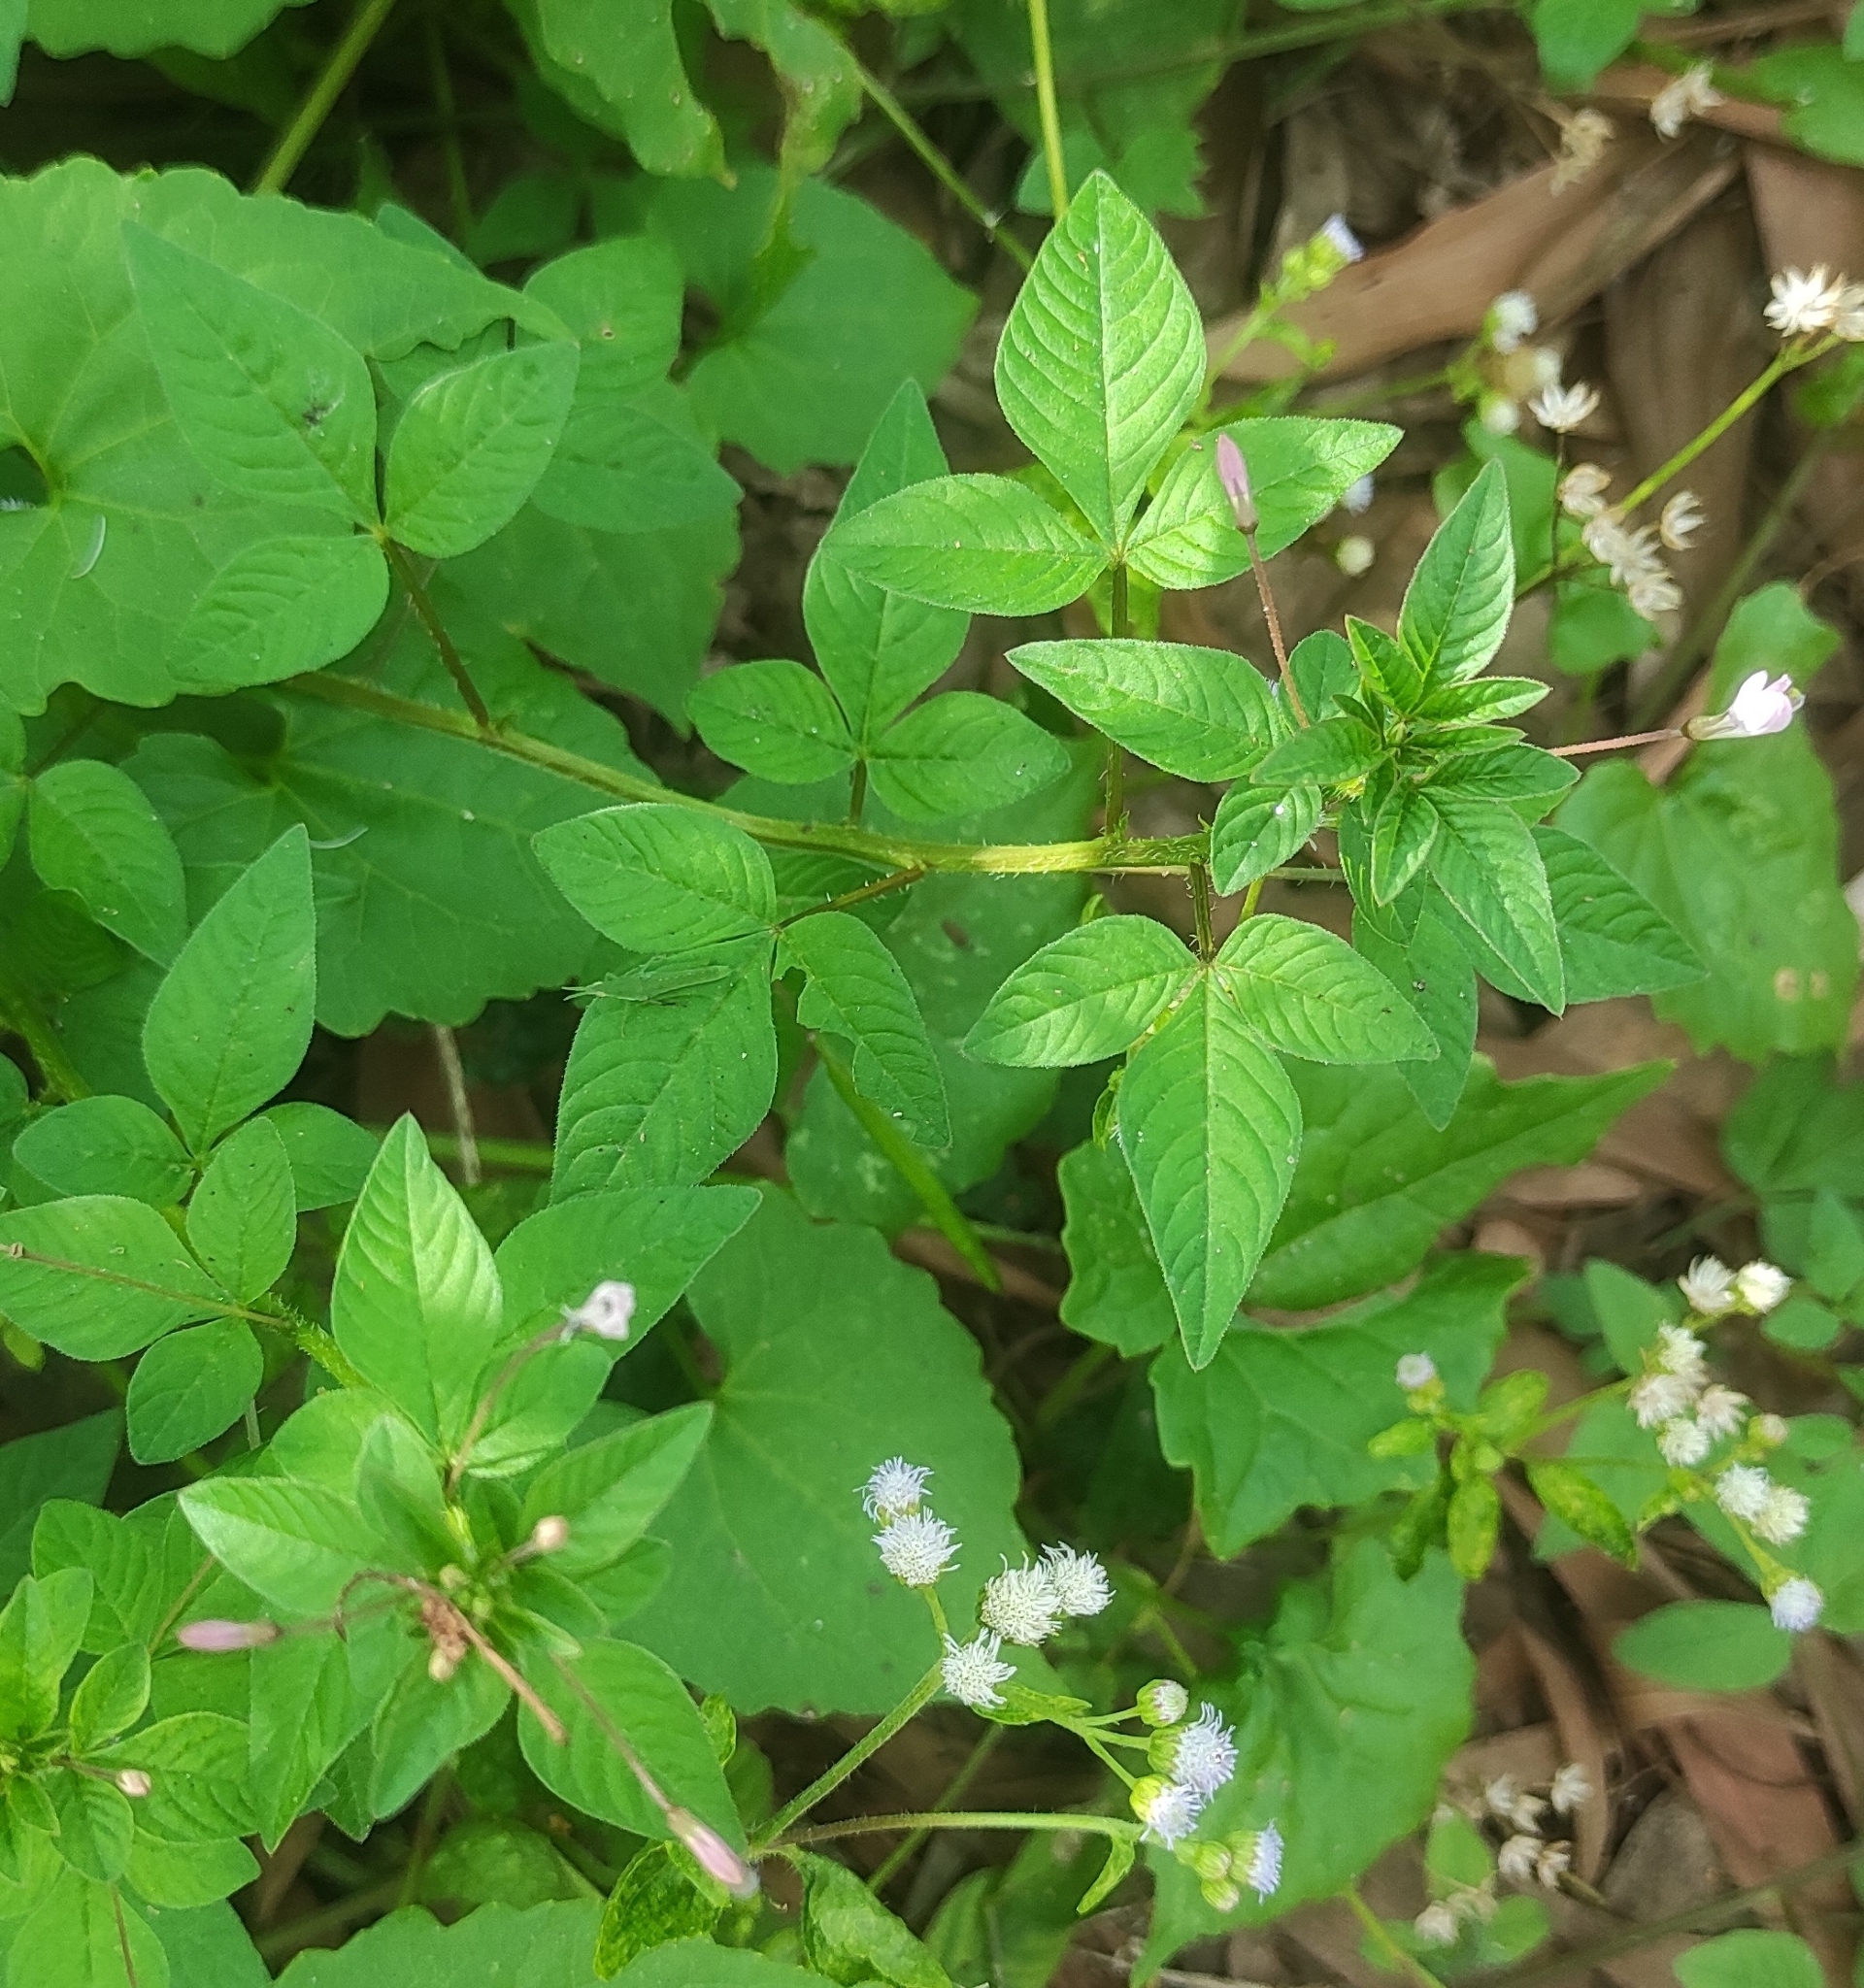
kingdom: Plantae
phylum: Tracheophyta
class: Magnoliopsida
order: Brassicales
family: Cleomaceae
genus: Sieruela
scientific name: Sieruela rutidosperma
